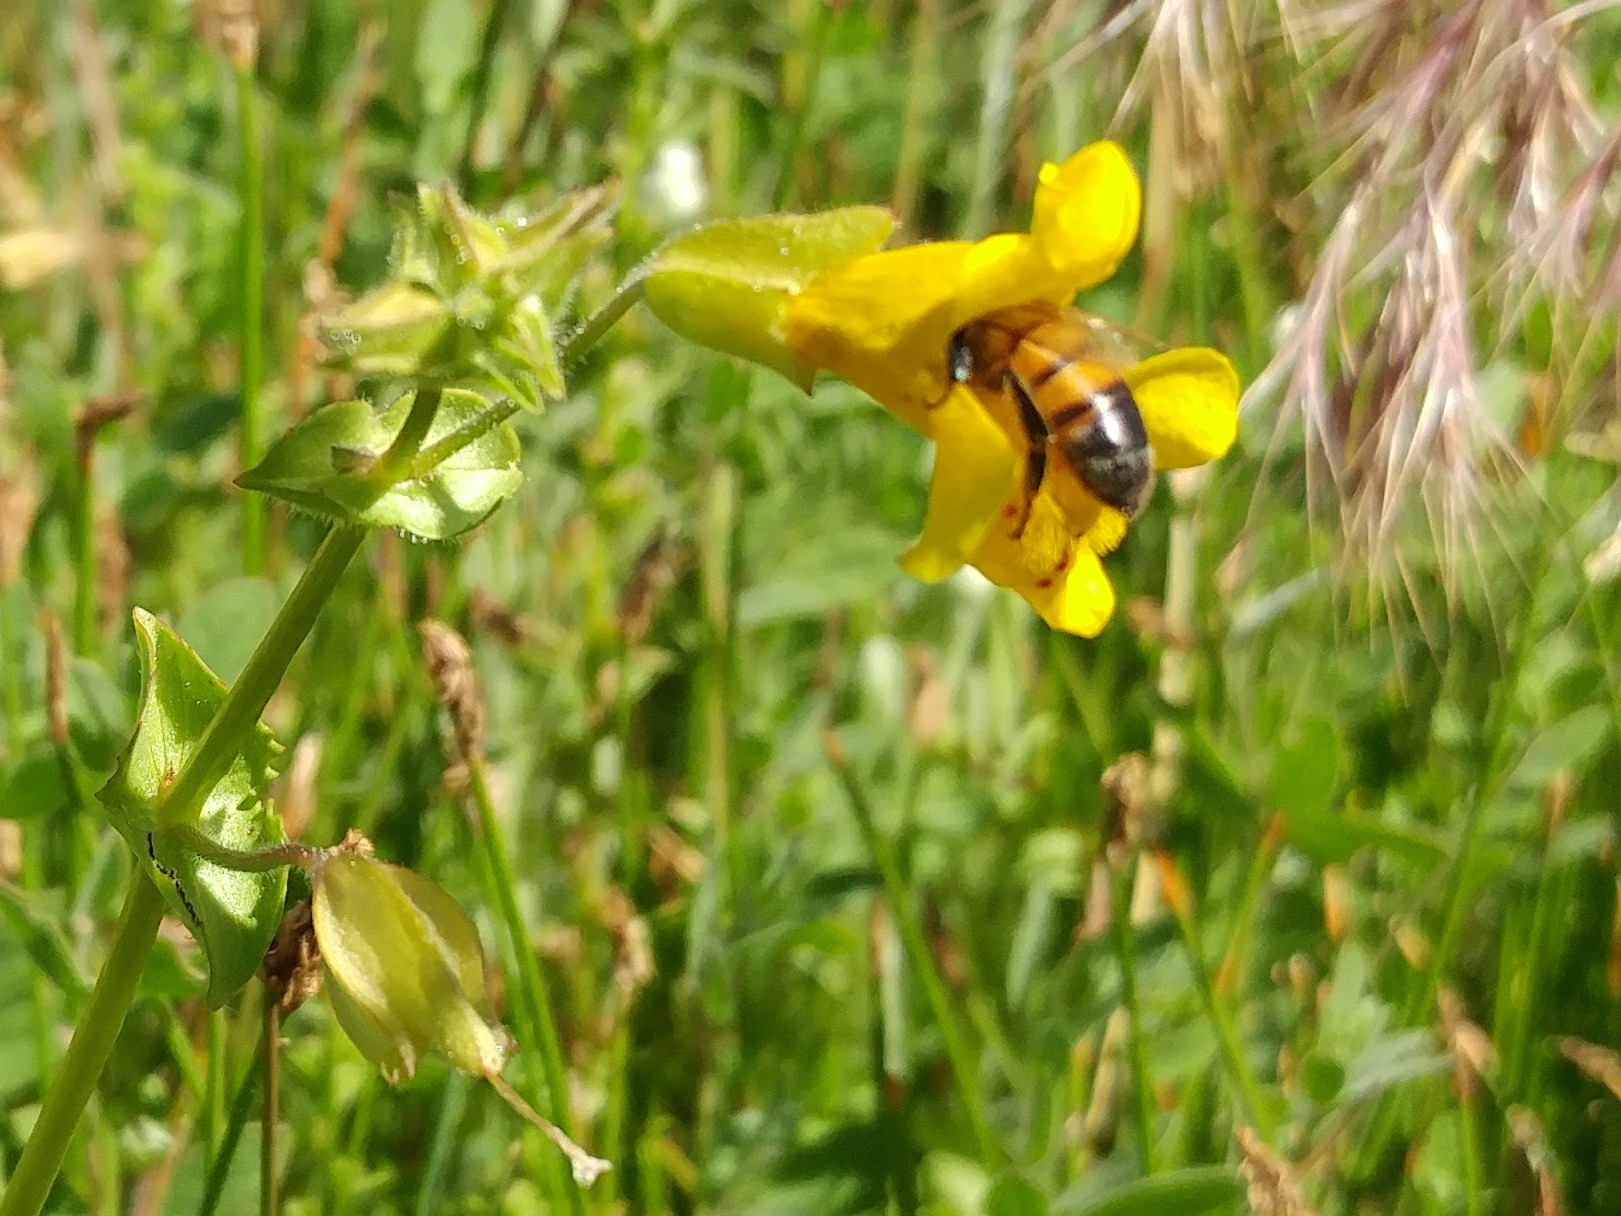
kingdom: Animalia
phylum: Arthropoda
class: Insecta
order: Hymenoptera
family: Apidae
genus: Apis
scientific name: Apis mellifera
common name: Honey bee
